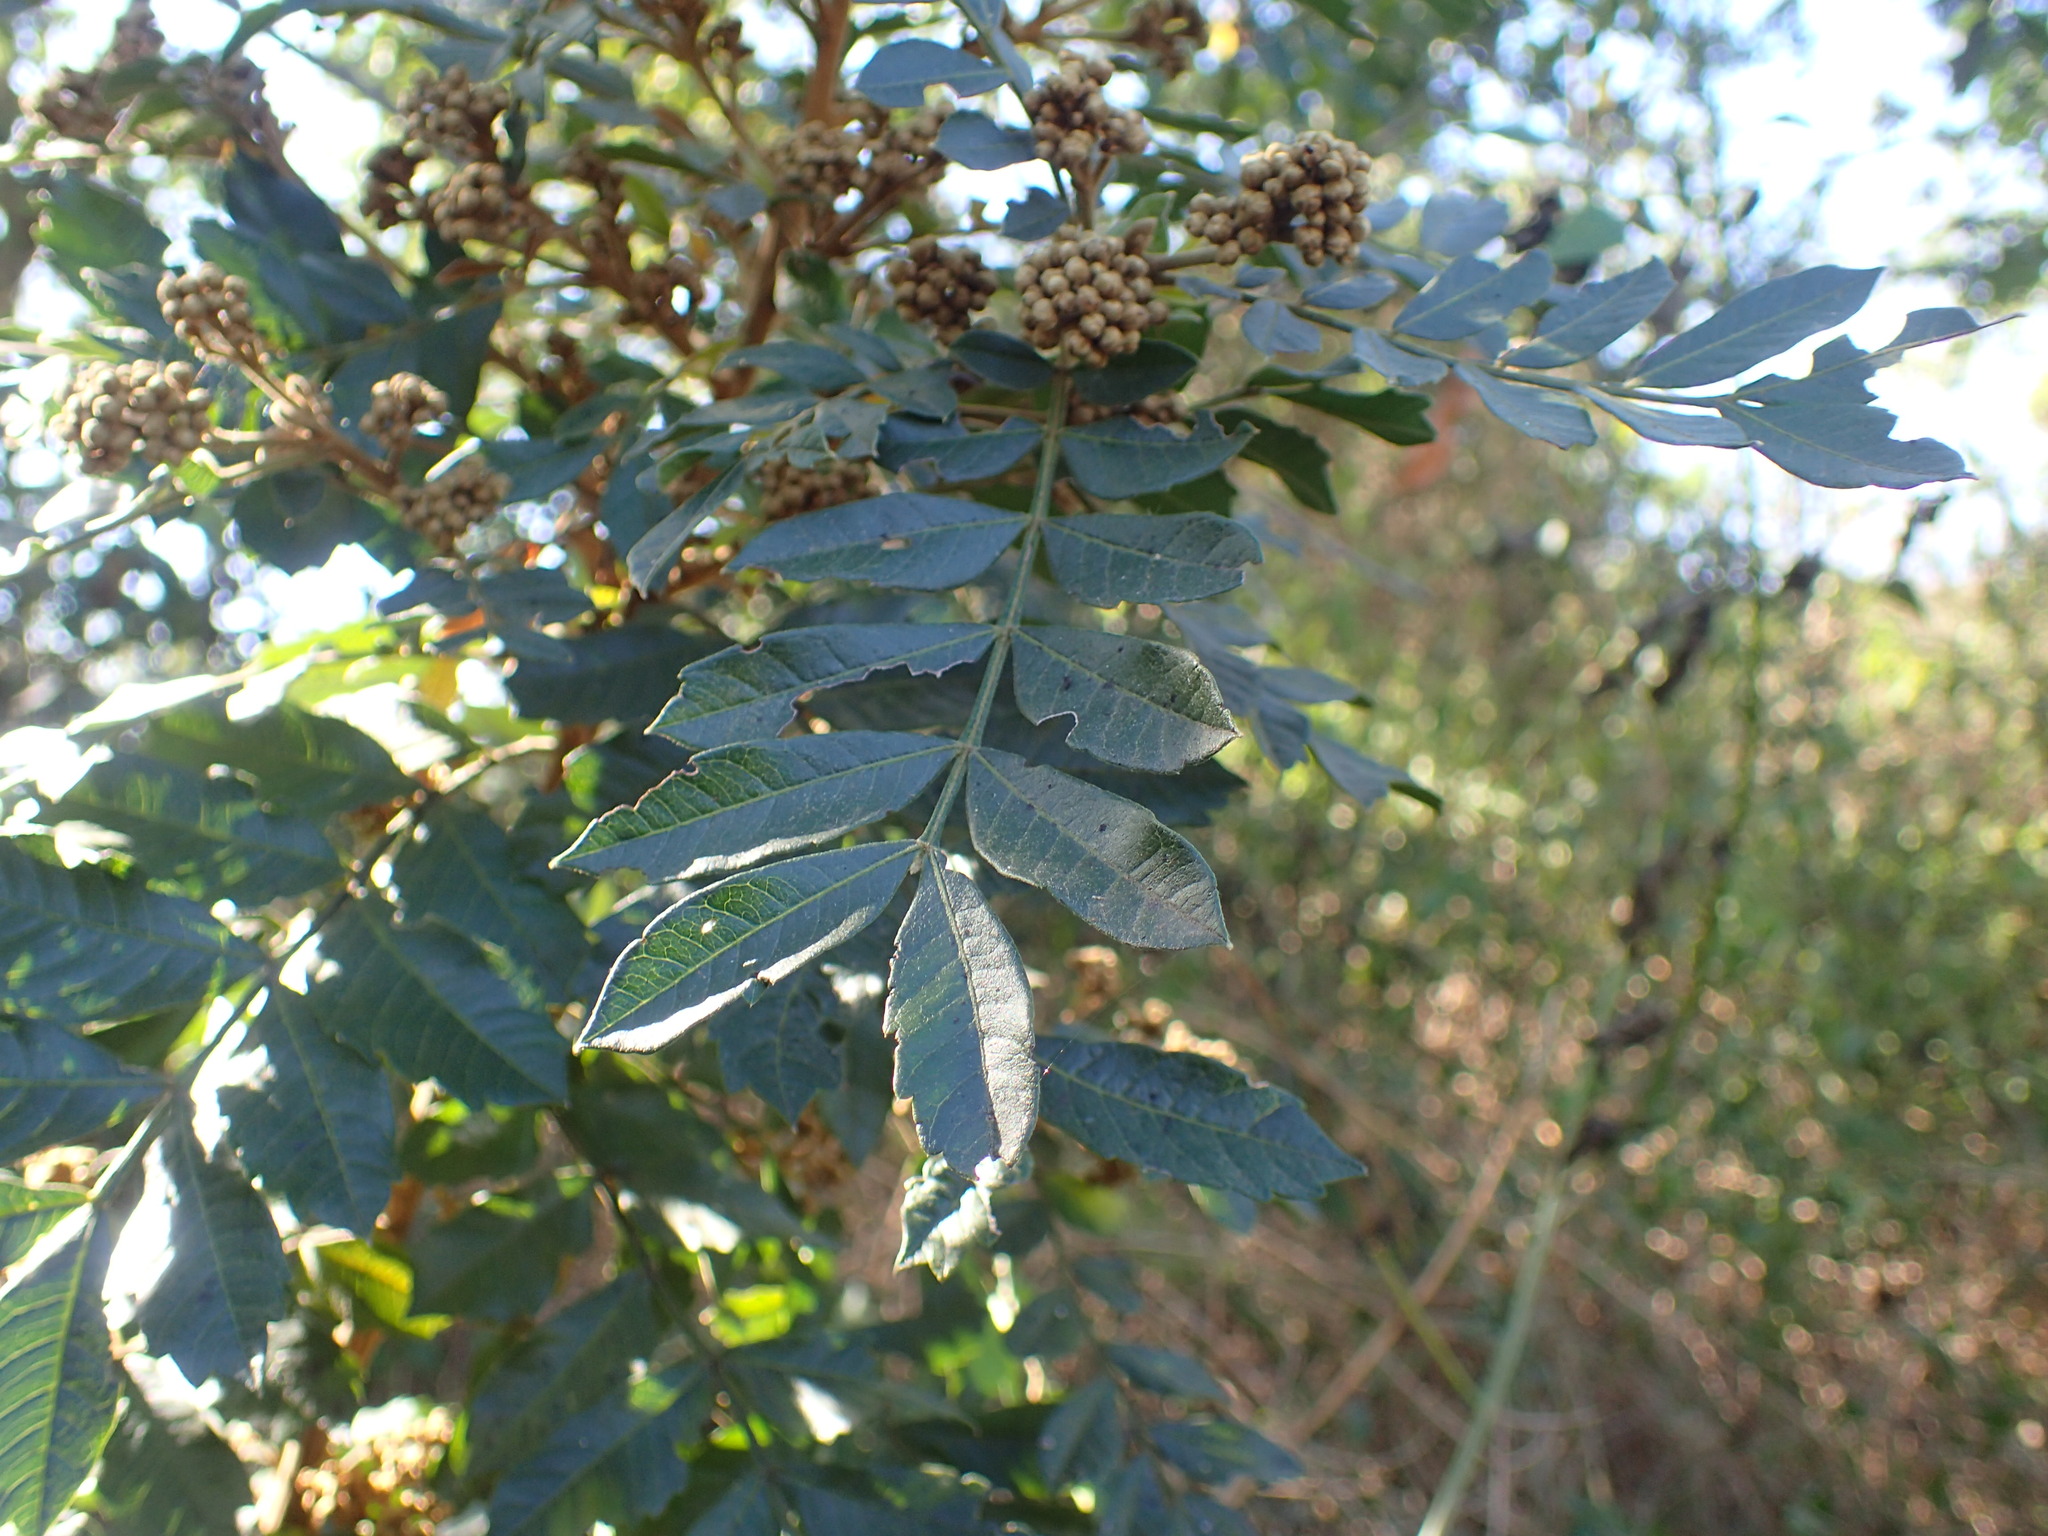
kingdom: Plantae
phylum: Tracheophyta
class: Magnoliopsida
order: Sapindales
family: Sapindaceae
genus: Hippobromus
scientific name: Hippobromus pauciflorus
